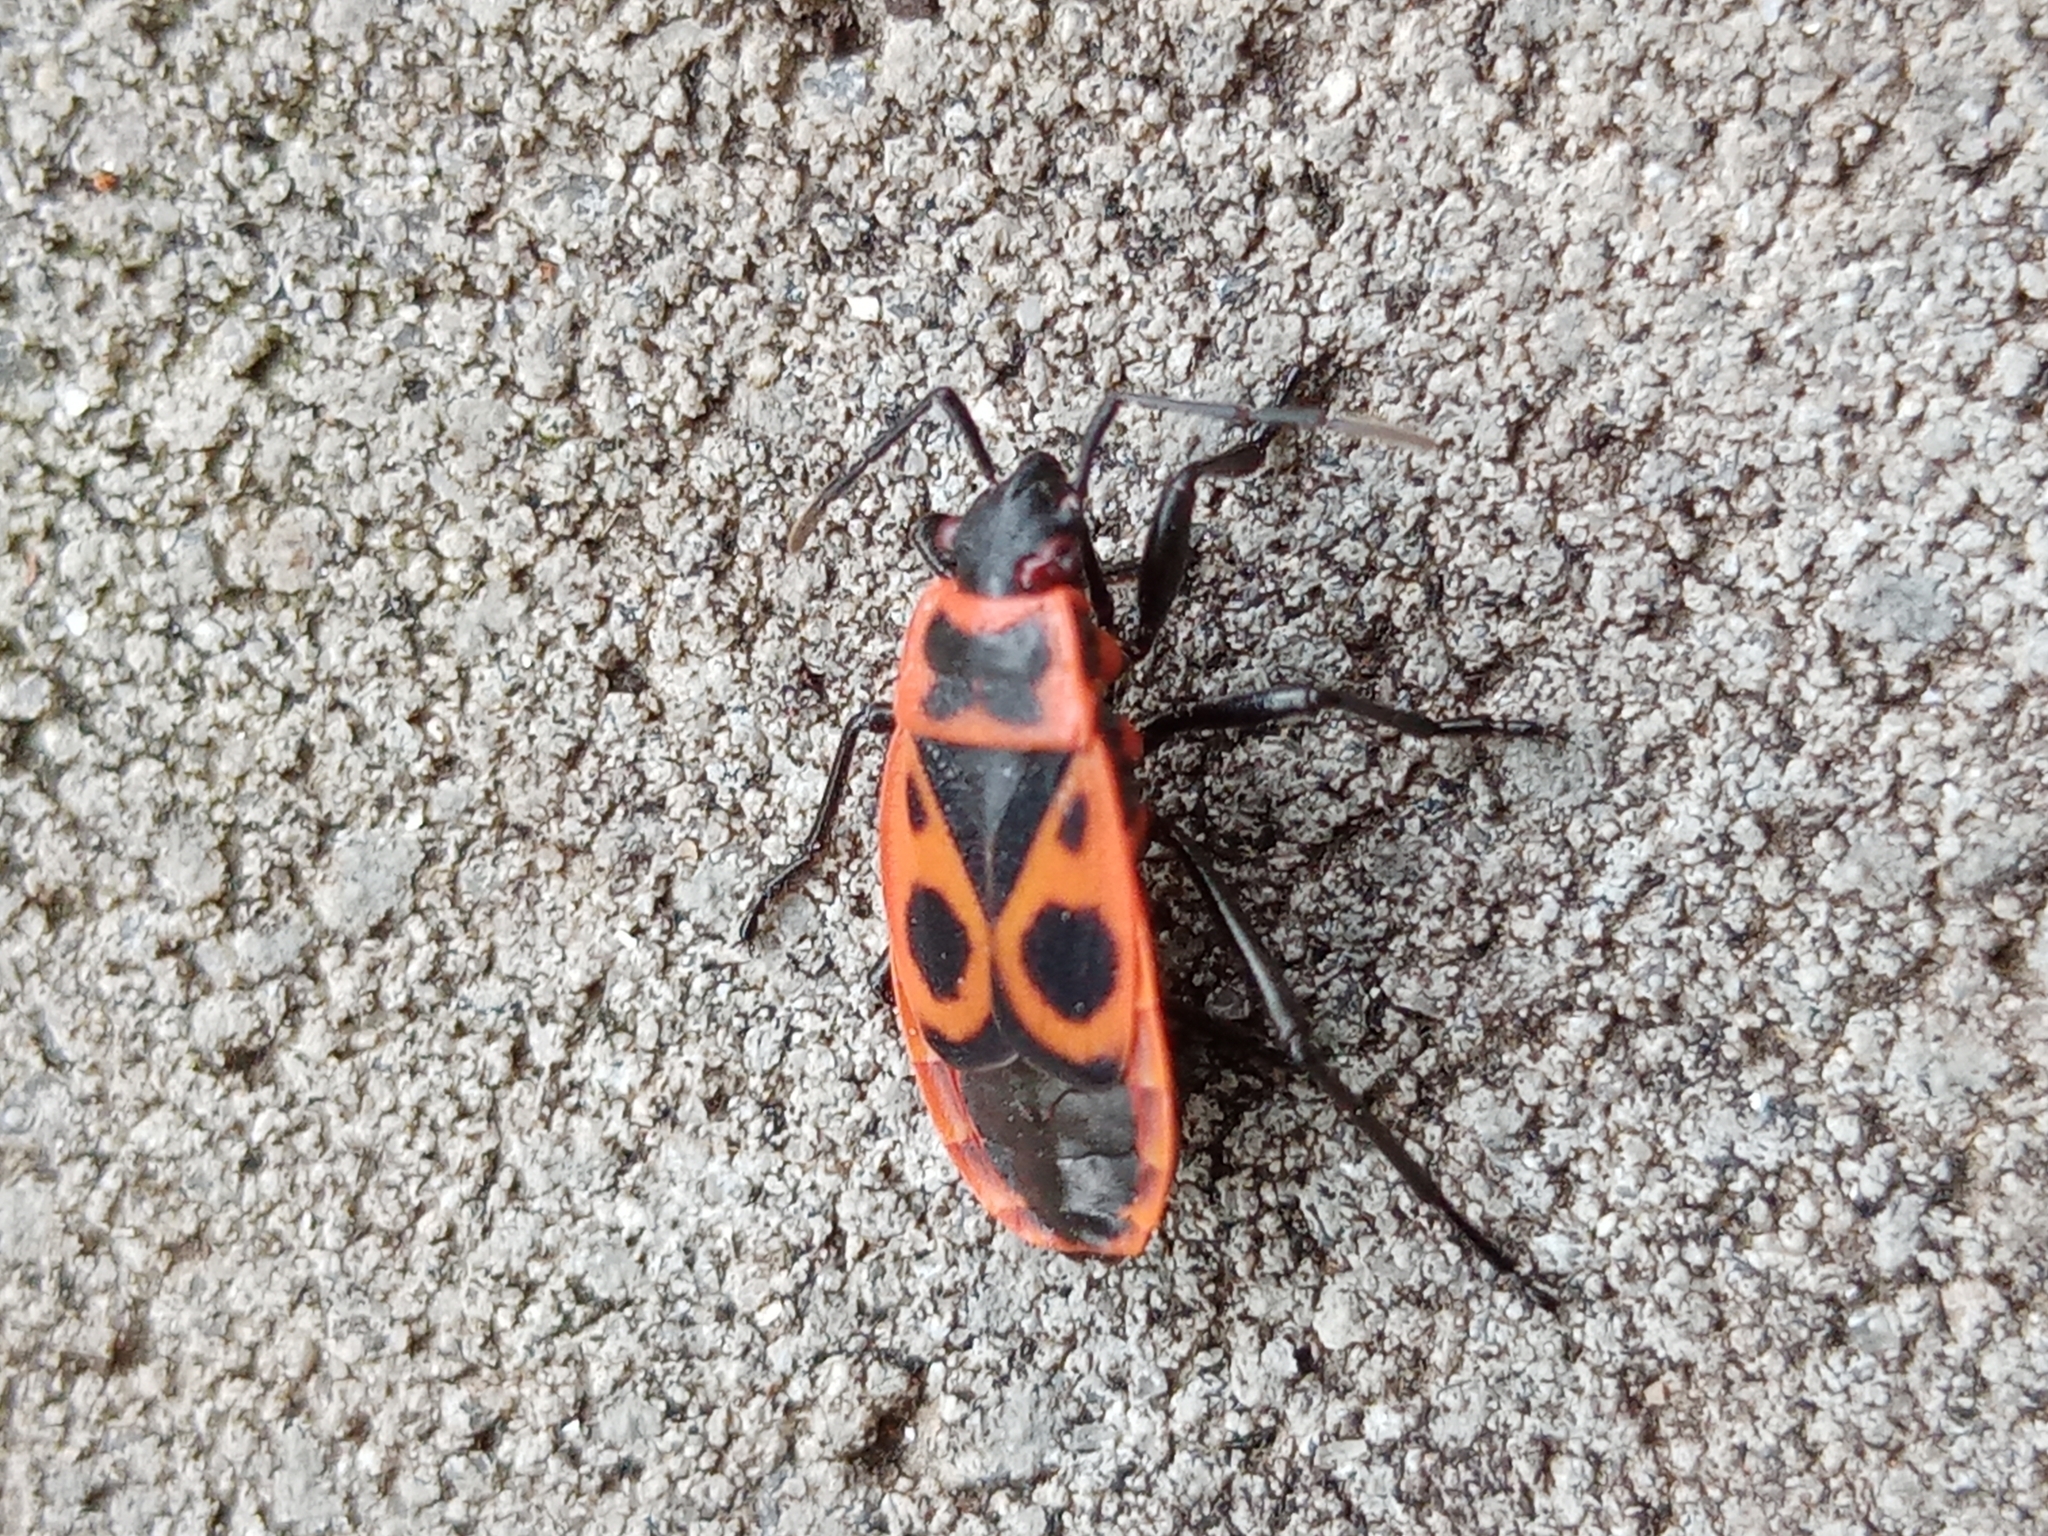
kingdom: Animalia
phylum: Arthropoda
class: Insecta
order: Hemiptera
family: Pyrrhocoridae
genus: Pyrrhocoris
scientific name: Pyrrhocoris apterus
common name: Firebug
